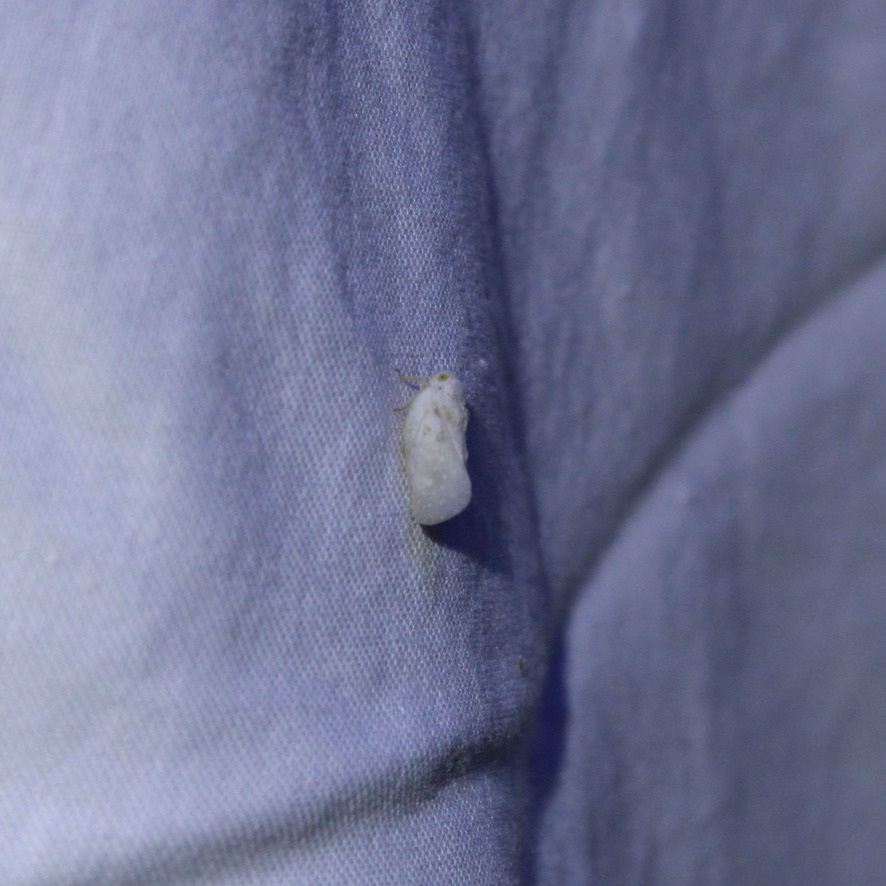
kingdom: Animalia
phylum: Arthropoda
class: Insecta
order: Hemiptera
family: Flatidae
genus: Metcalfa
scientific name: Metcalfa pruinosa
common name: Citrus flatid planthopper
